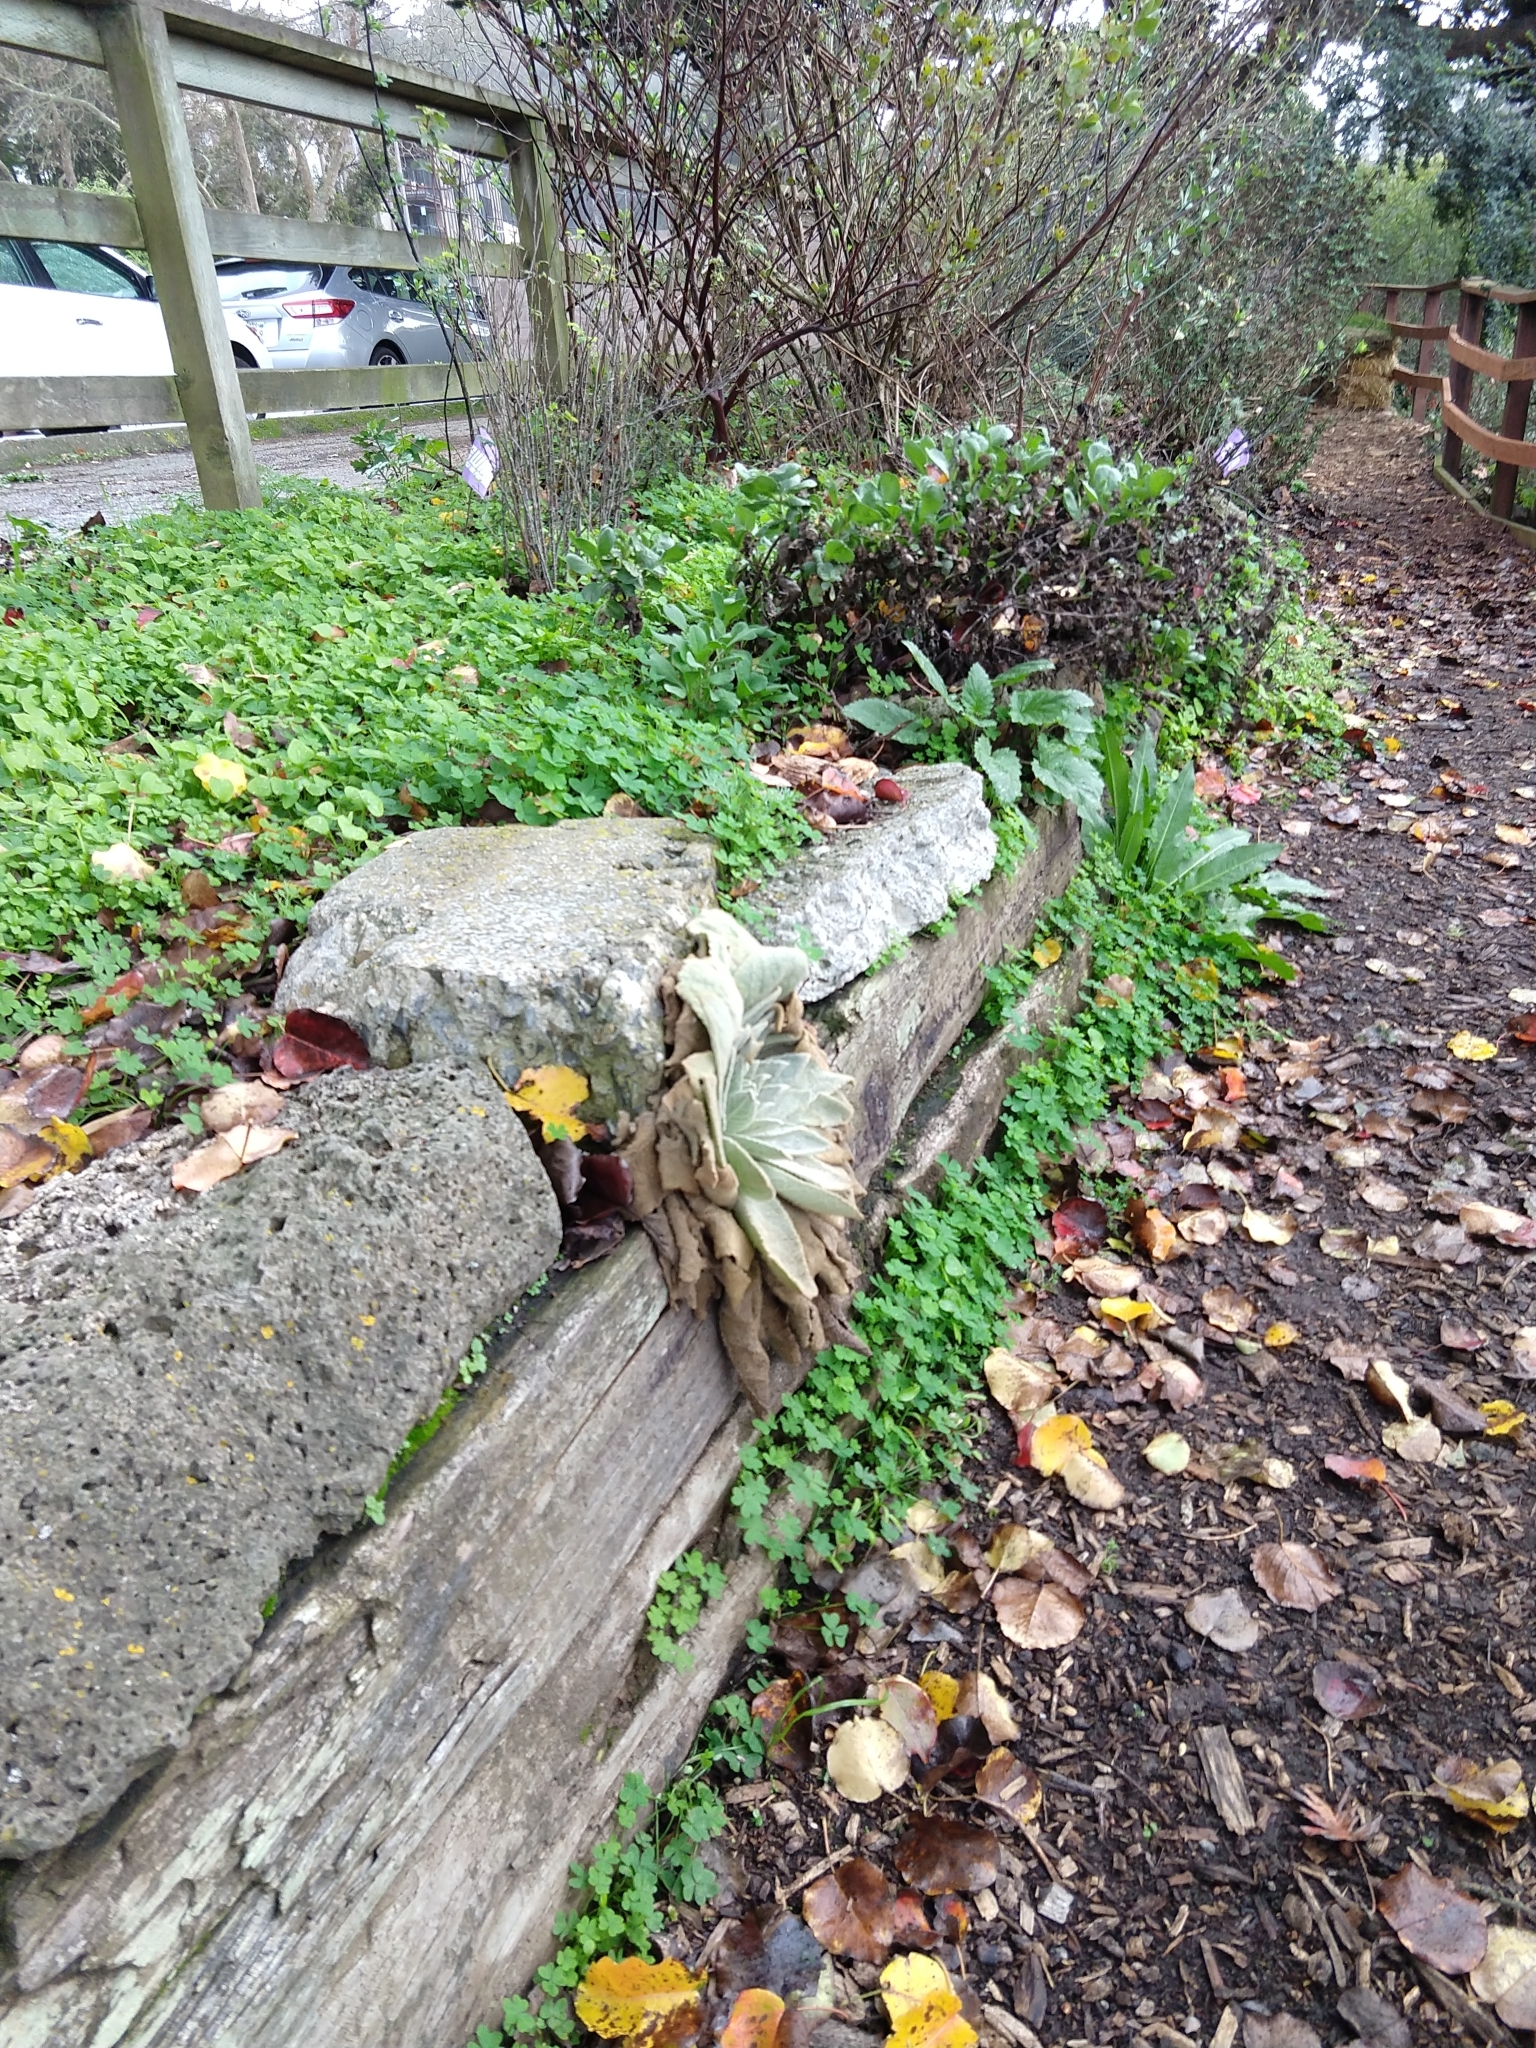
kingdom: Plantae
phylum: Tracheophyta
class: Magnoliopsida
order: Lamiales
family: Scrophulariaceae
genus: Verbascum
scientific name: Verbascum thapsus
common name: Common mullein
